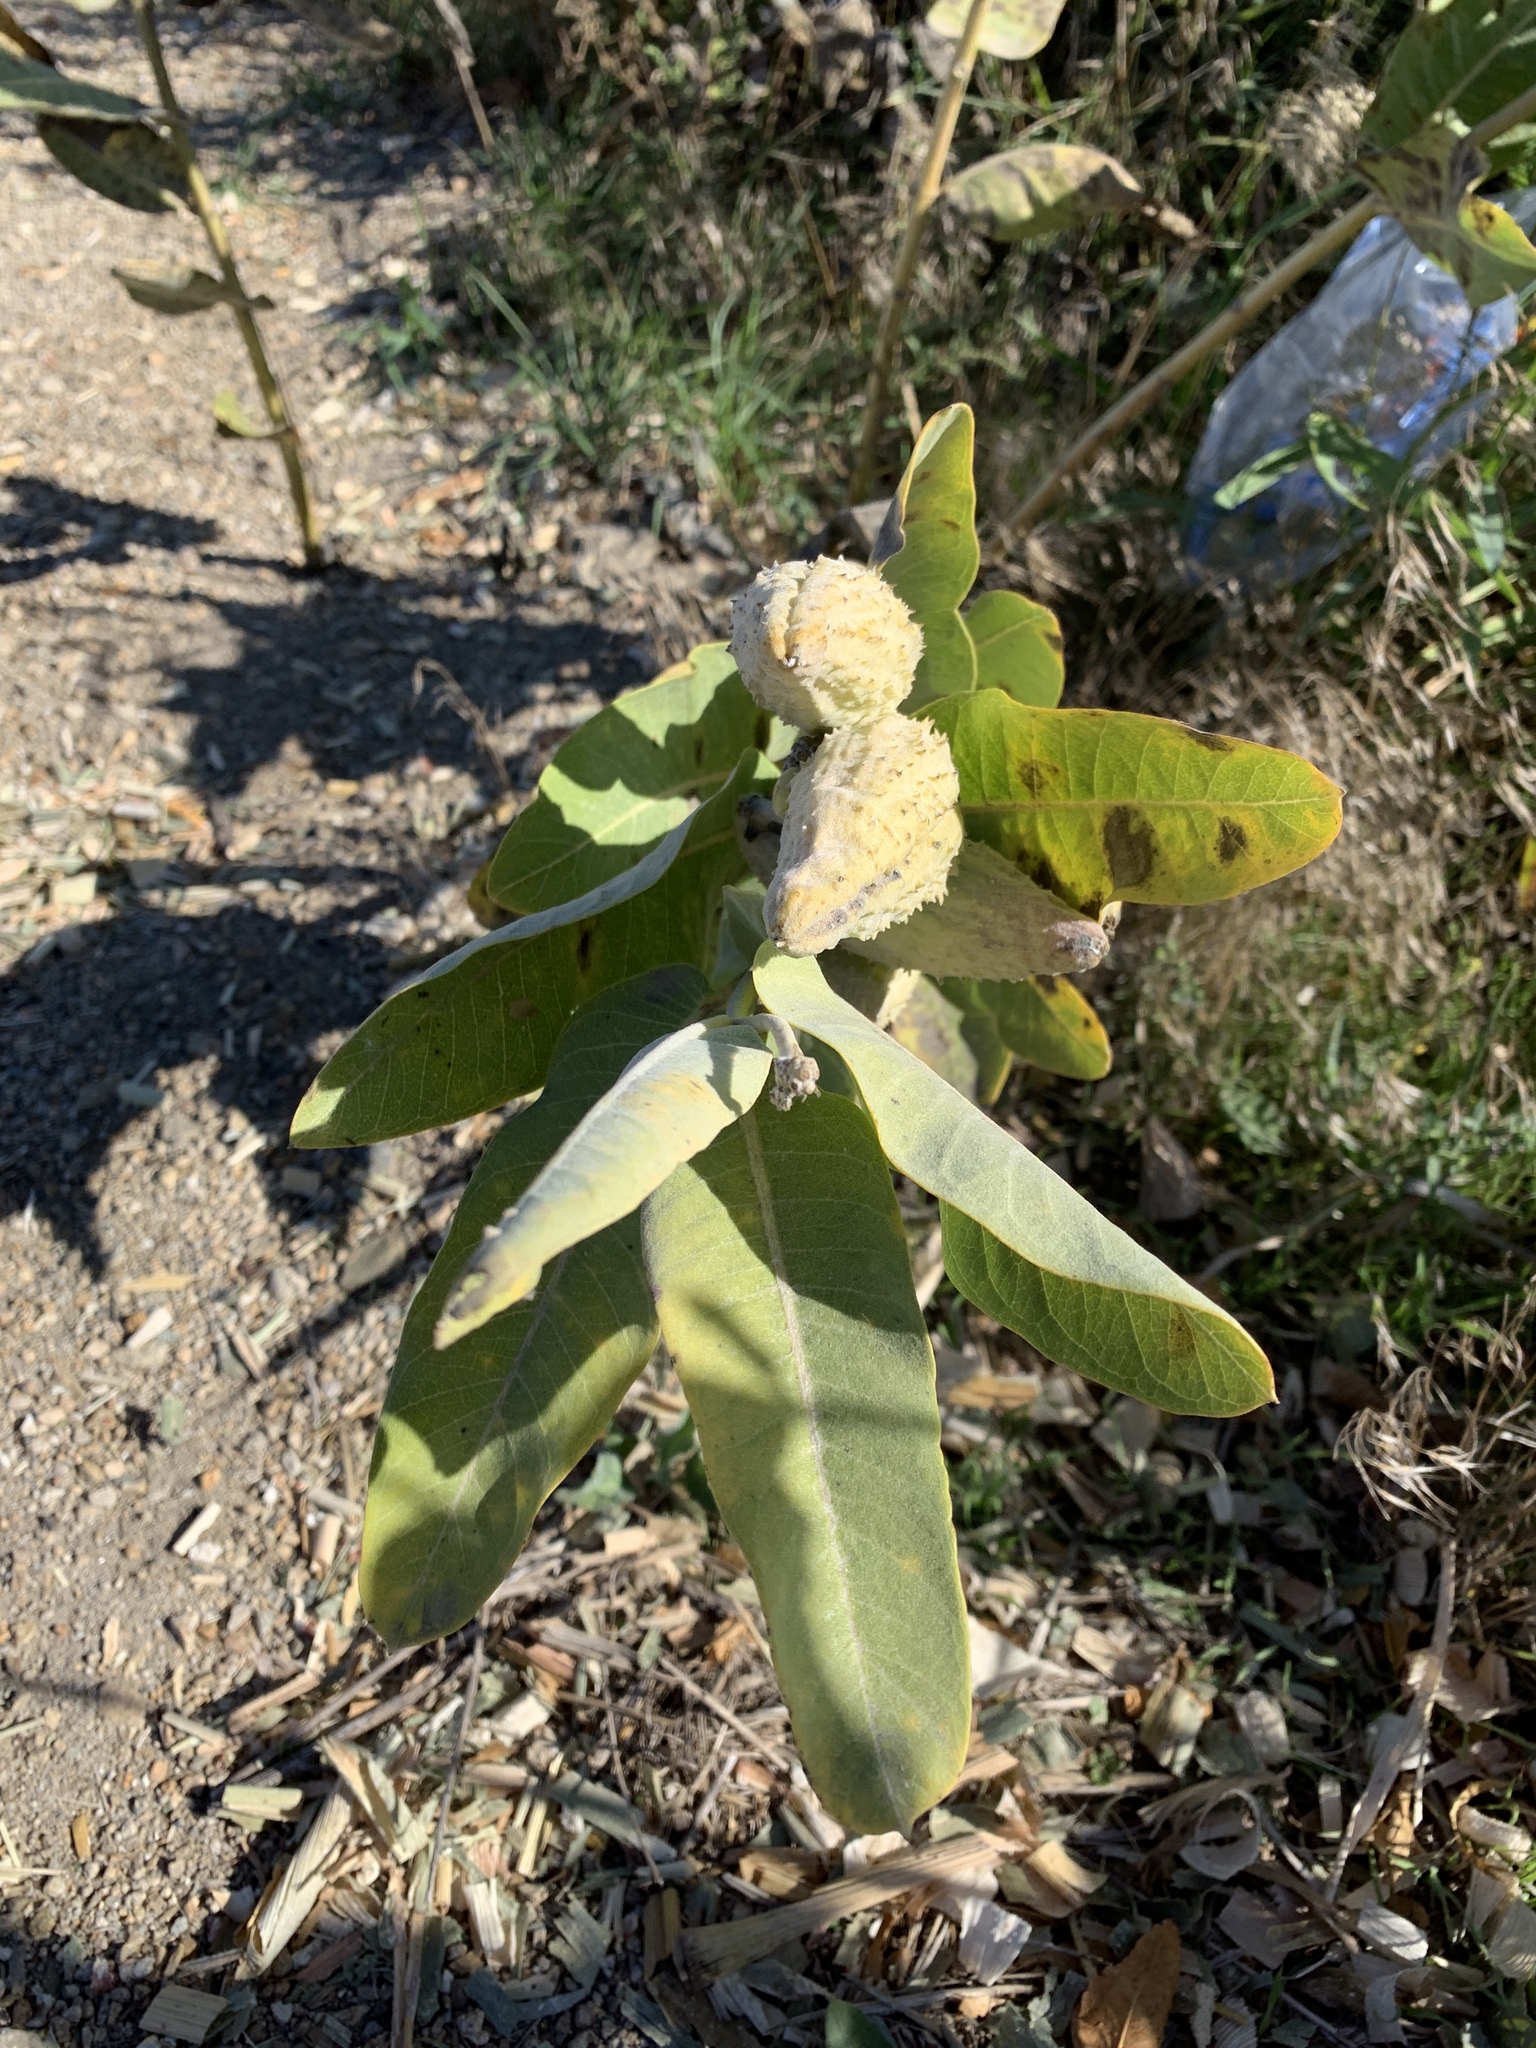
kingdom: Plantae
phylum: Tracheophyta
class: Magnoliopsida
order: Gentianales
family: Apocynaceae
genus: Asclepias
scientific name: Asclepias speciosa
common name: Showy milkweed
